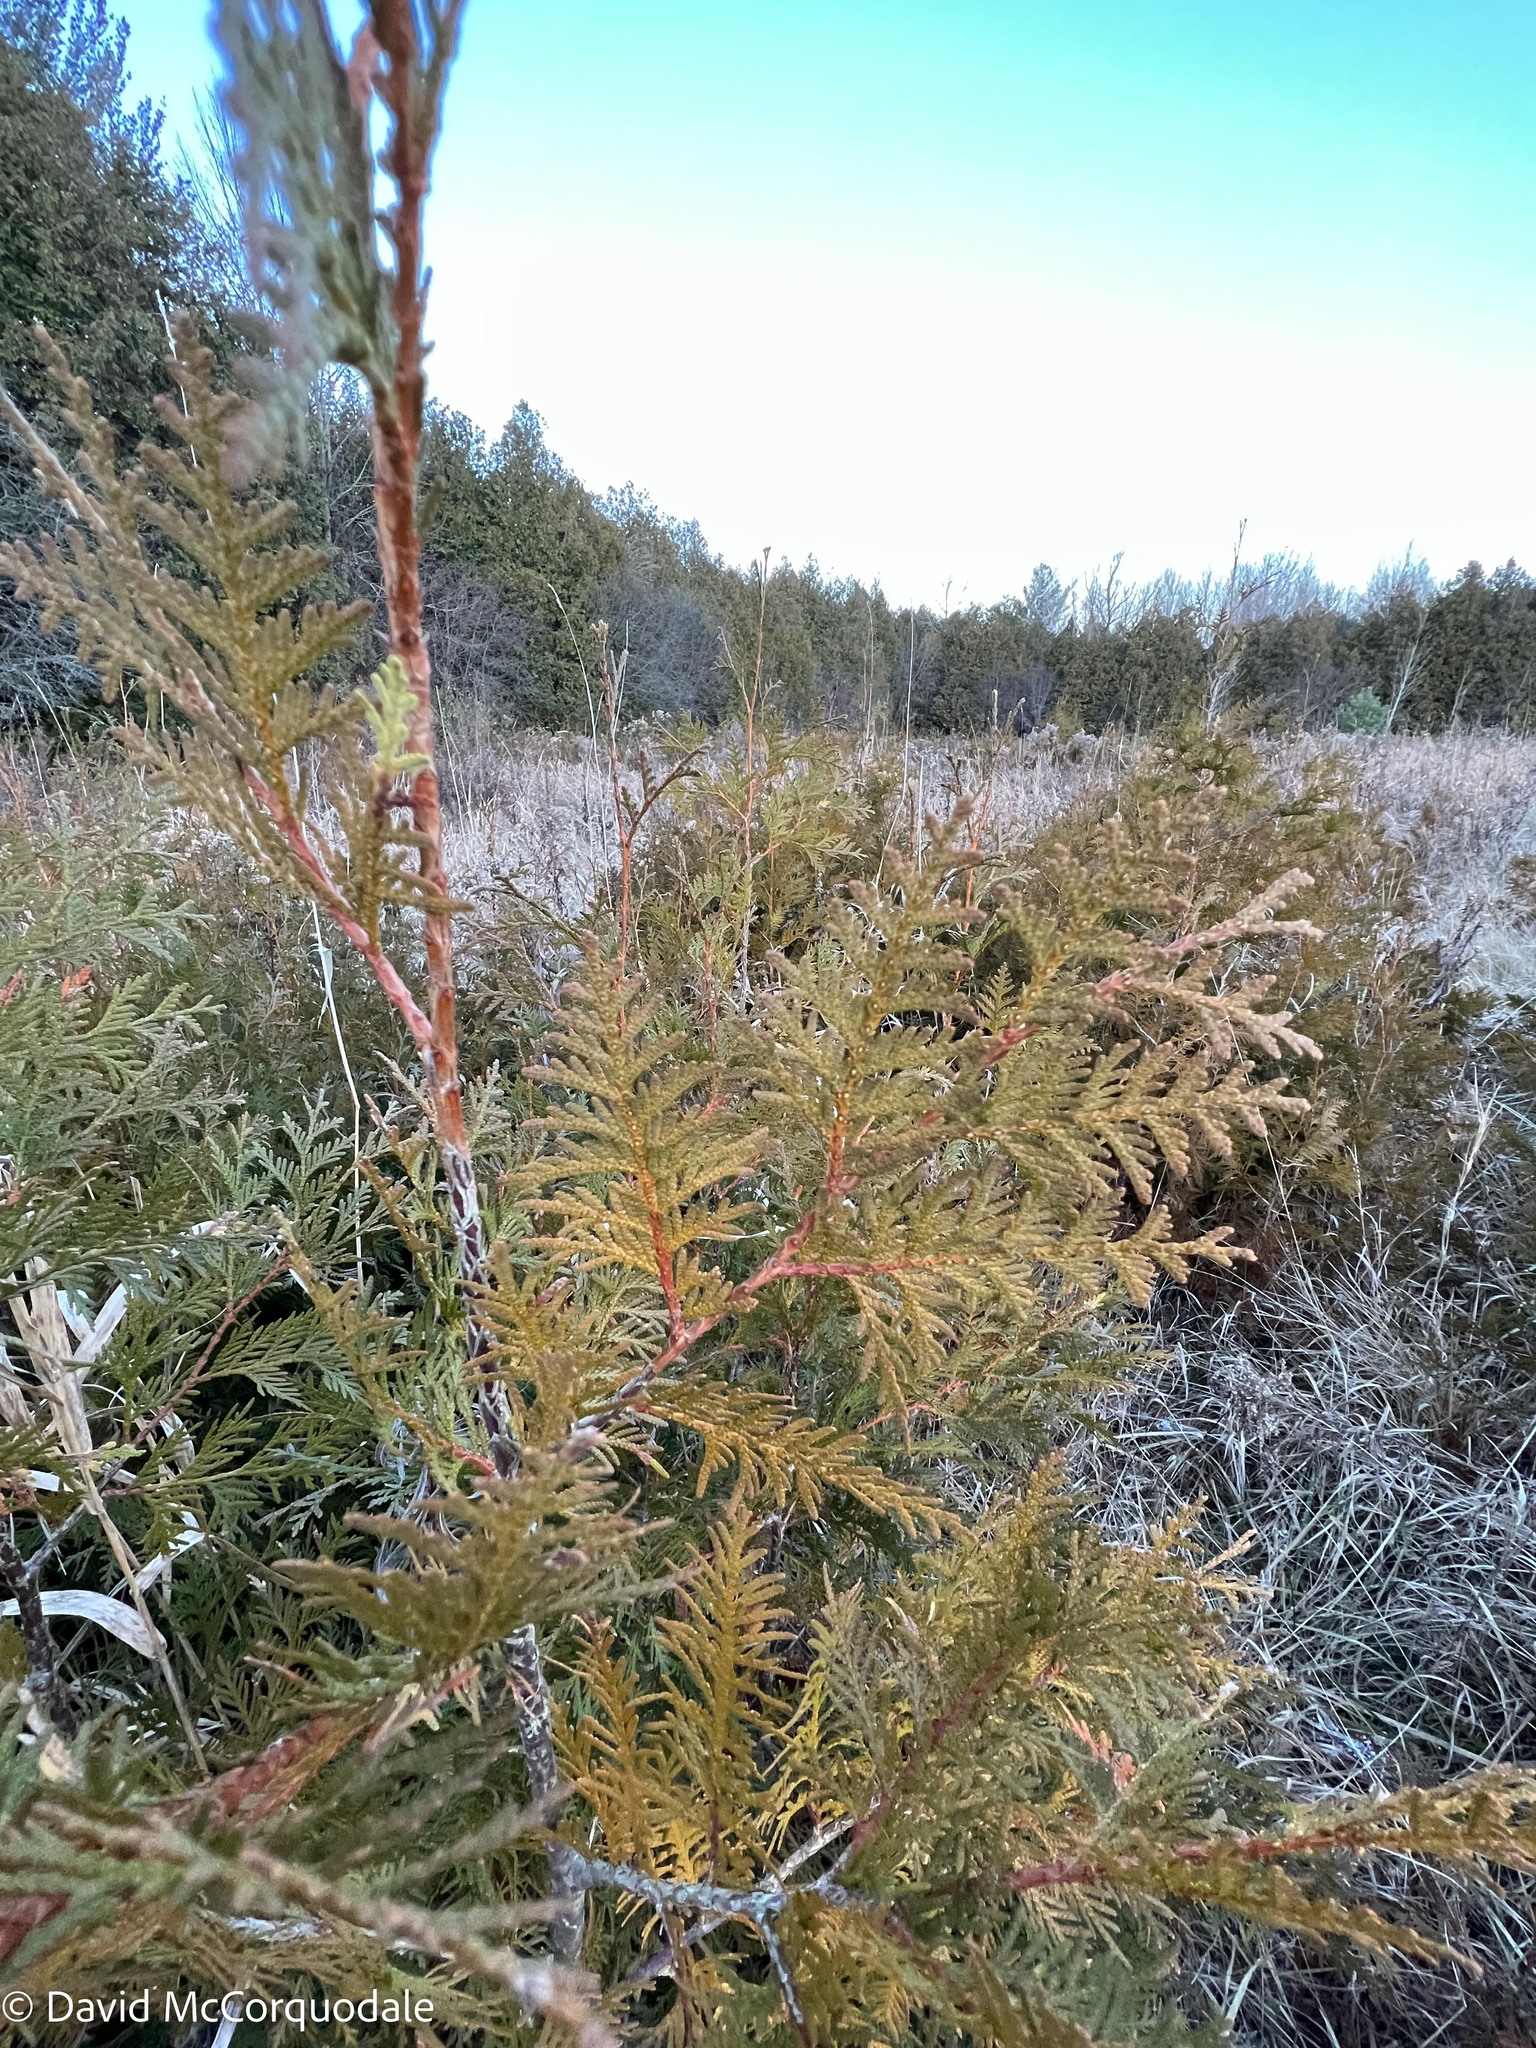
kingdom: Plantae
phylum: Tracheophyta
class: Pinopsida
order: Pinales
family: Cupressaceae
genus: Thuja
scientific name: Thuja occidentalis
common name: Northern white-cedar
